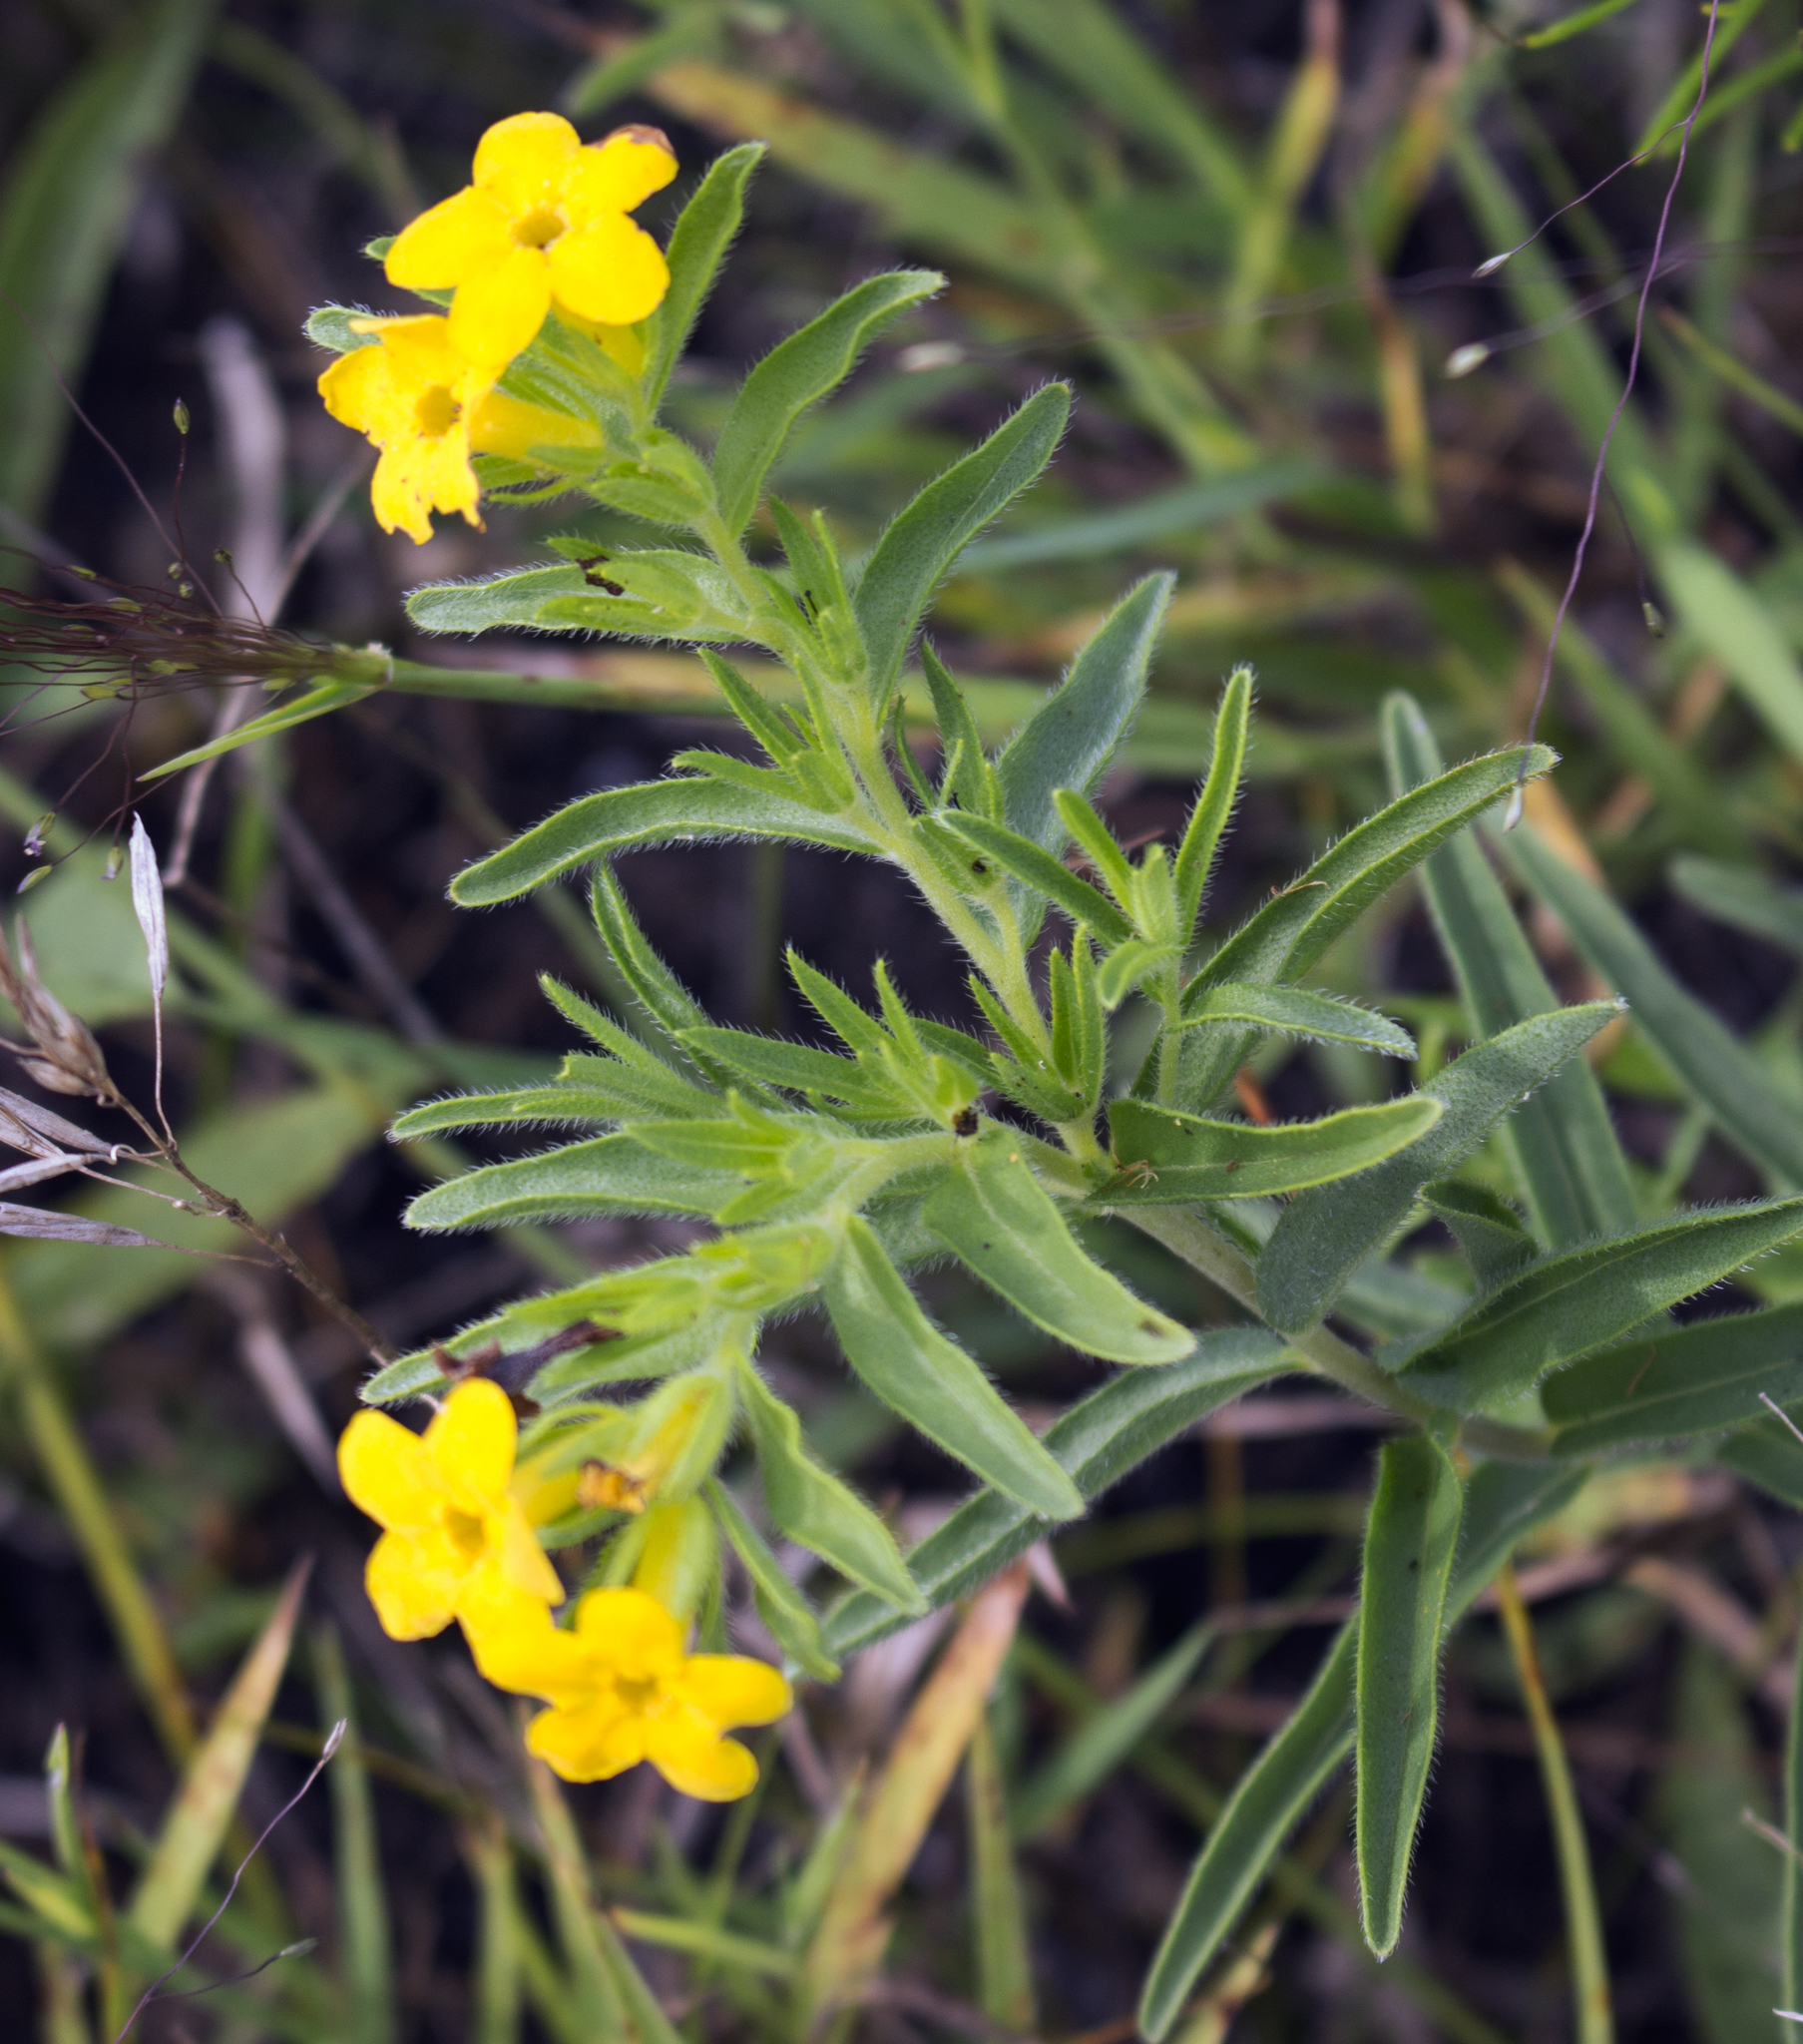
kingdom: Plantae
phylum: Tracheophyta
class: Magnoliopsida
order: Boraginales
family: Boraginaceae
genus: Lithospermum
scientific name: Lithospermum caroliniense
